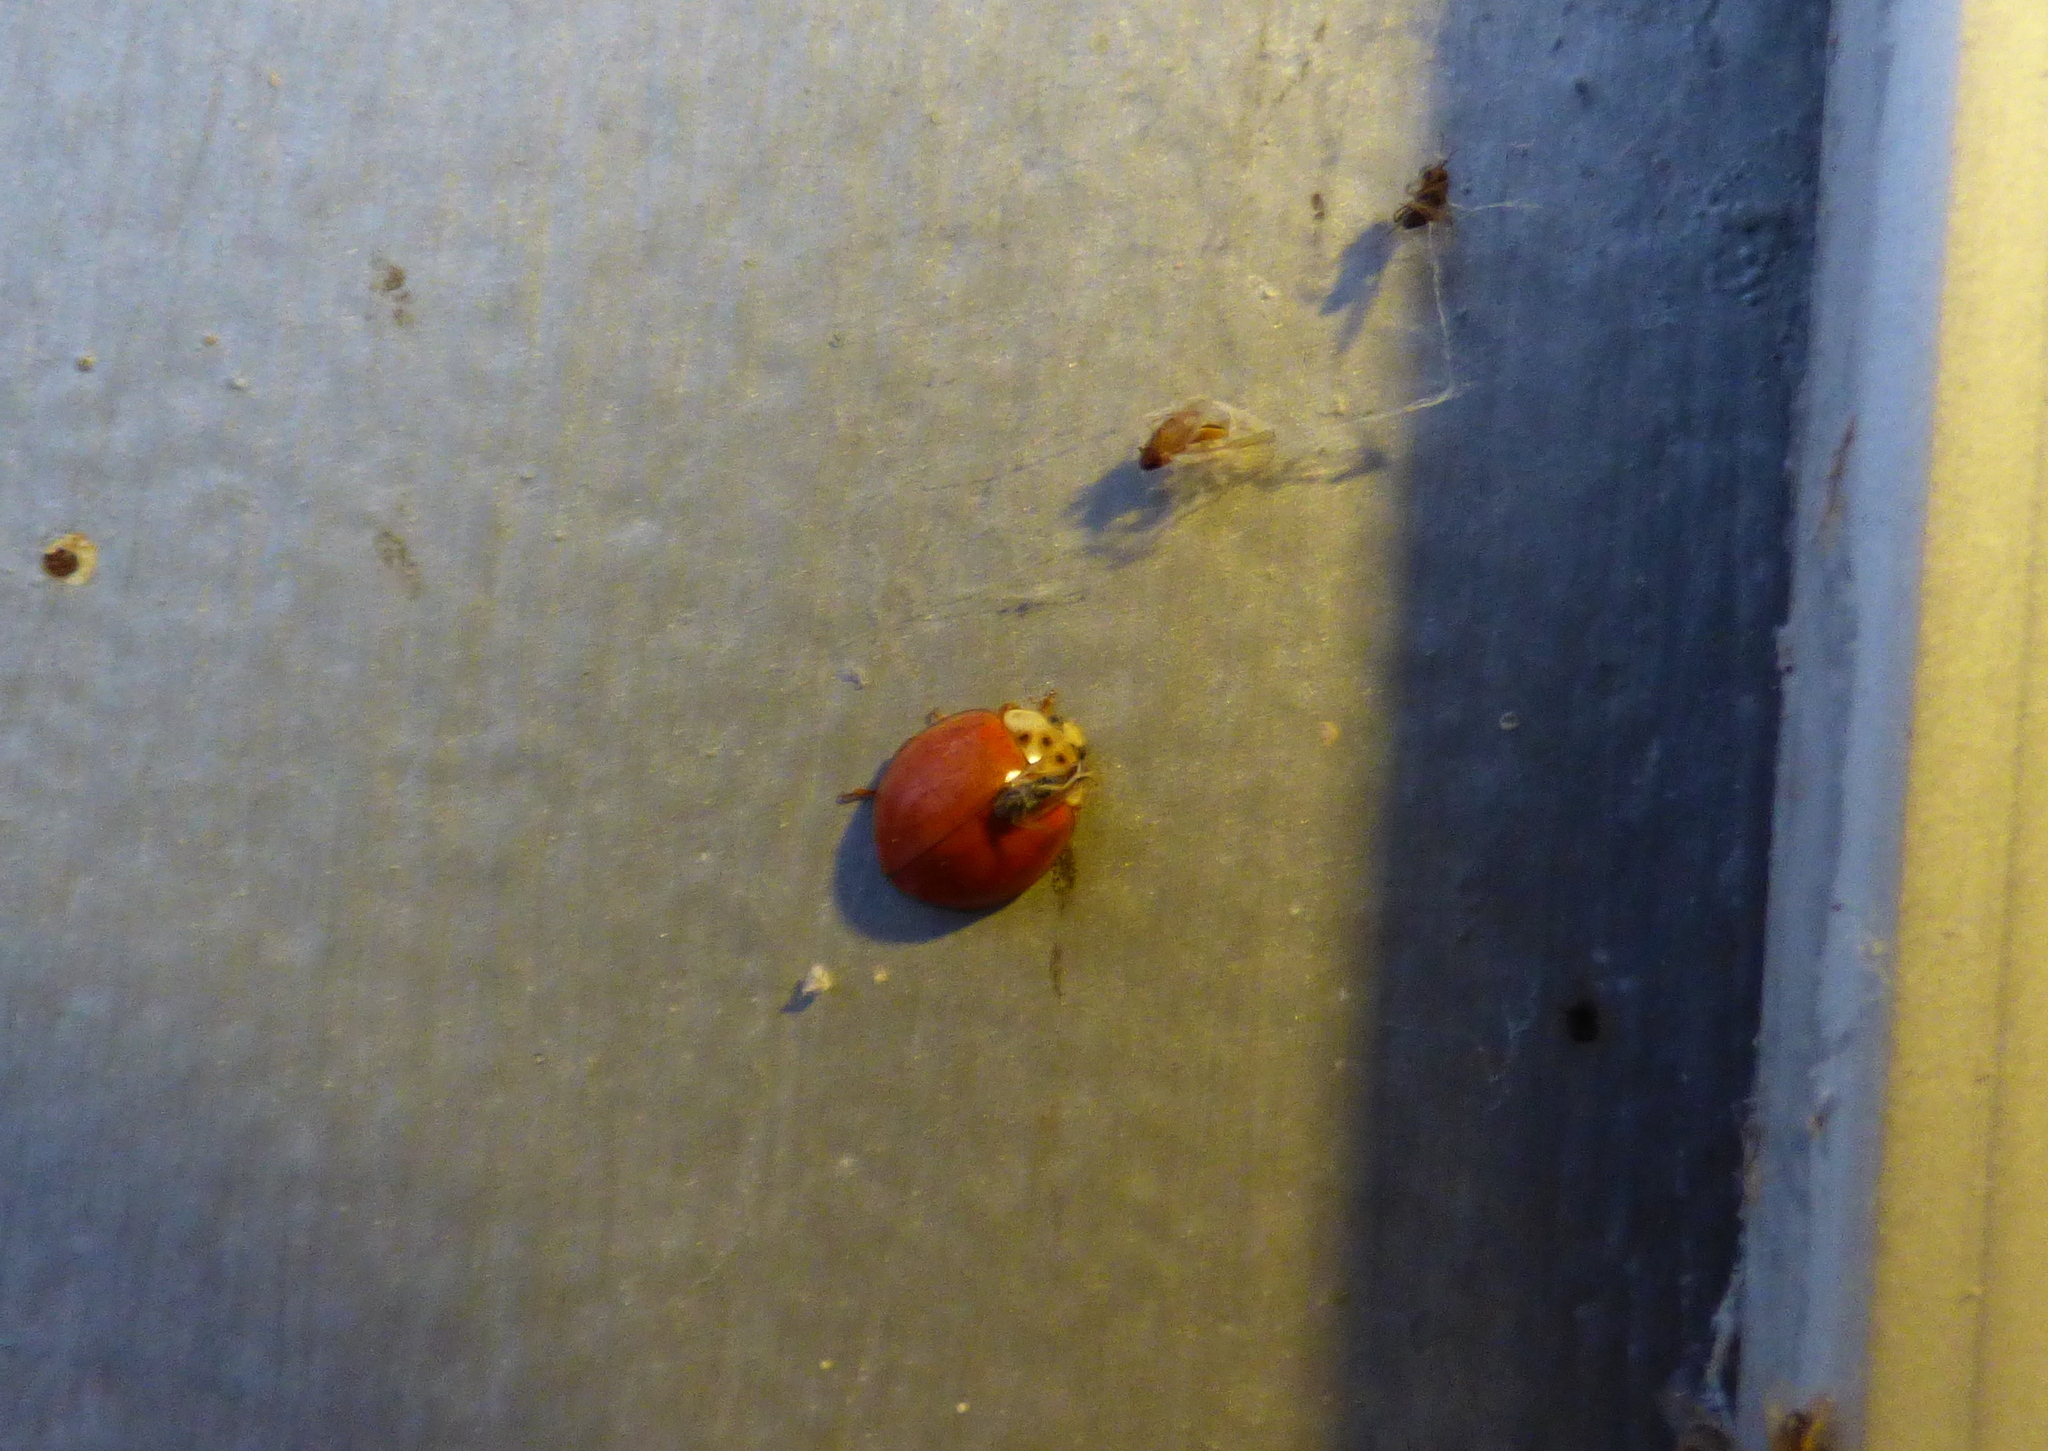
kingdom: Animalia
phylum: Arthropoda
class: Insecta
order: Coleoptera
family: Coccinellidae
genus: Harmonia
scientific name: Harmonia axyridis
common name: Harlequin ladybird
